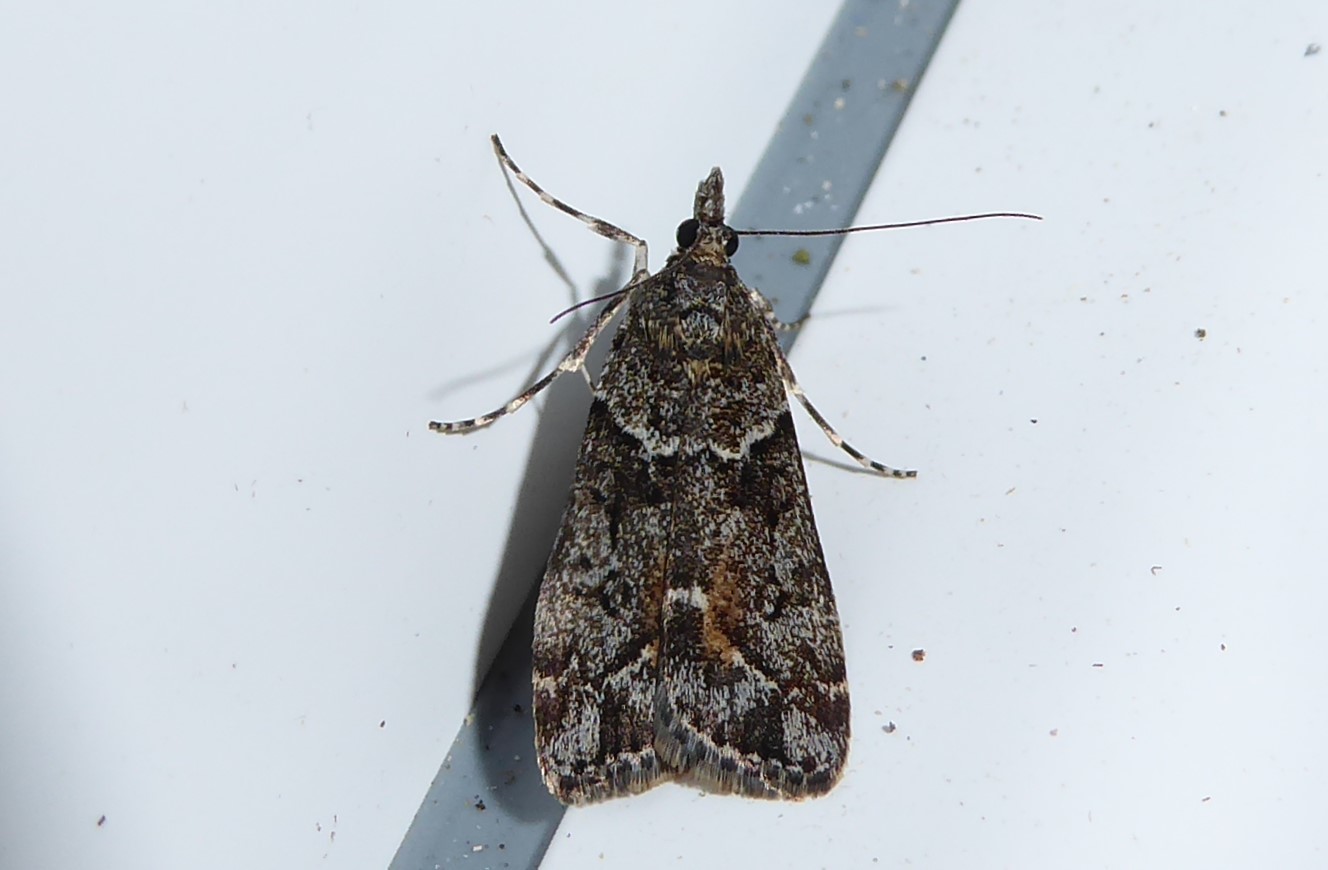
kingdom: Animalia
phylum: Arthropoda
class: Insecta
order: Lepidoptera
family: Crambidae
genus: Eudonia
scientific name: Eudonia submarginalis
